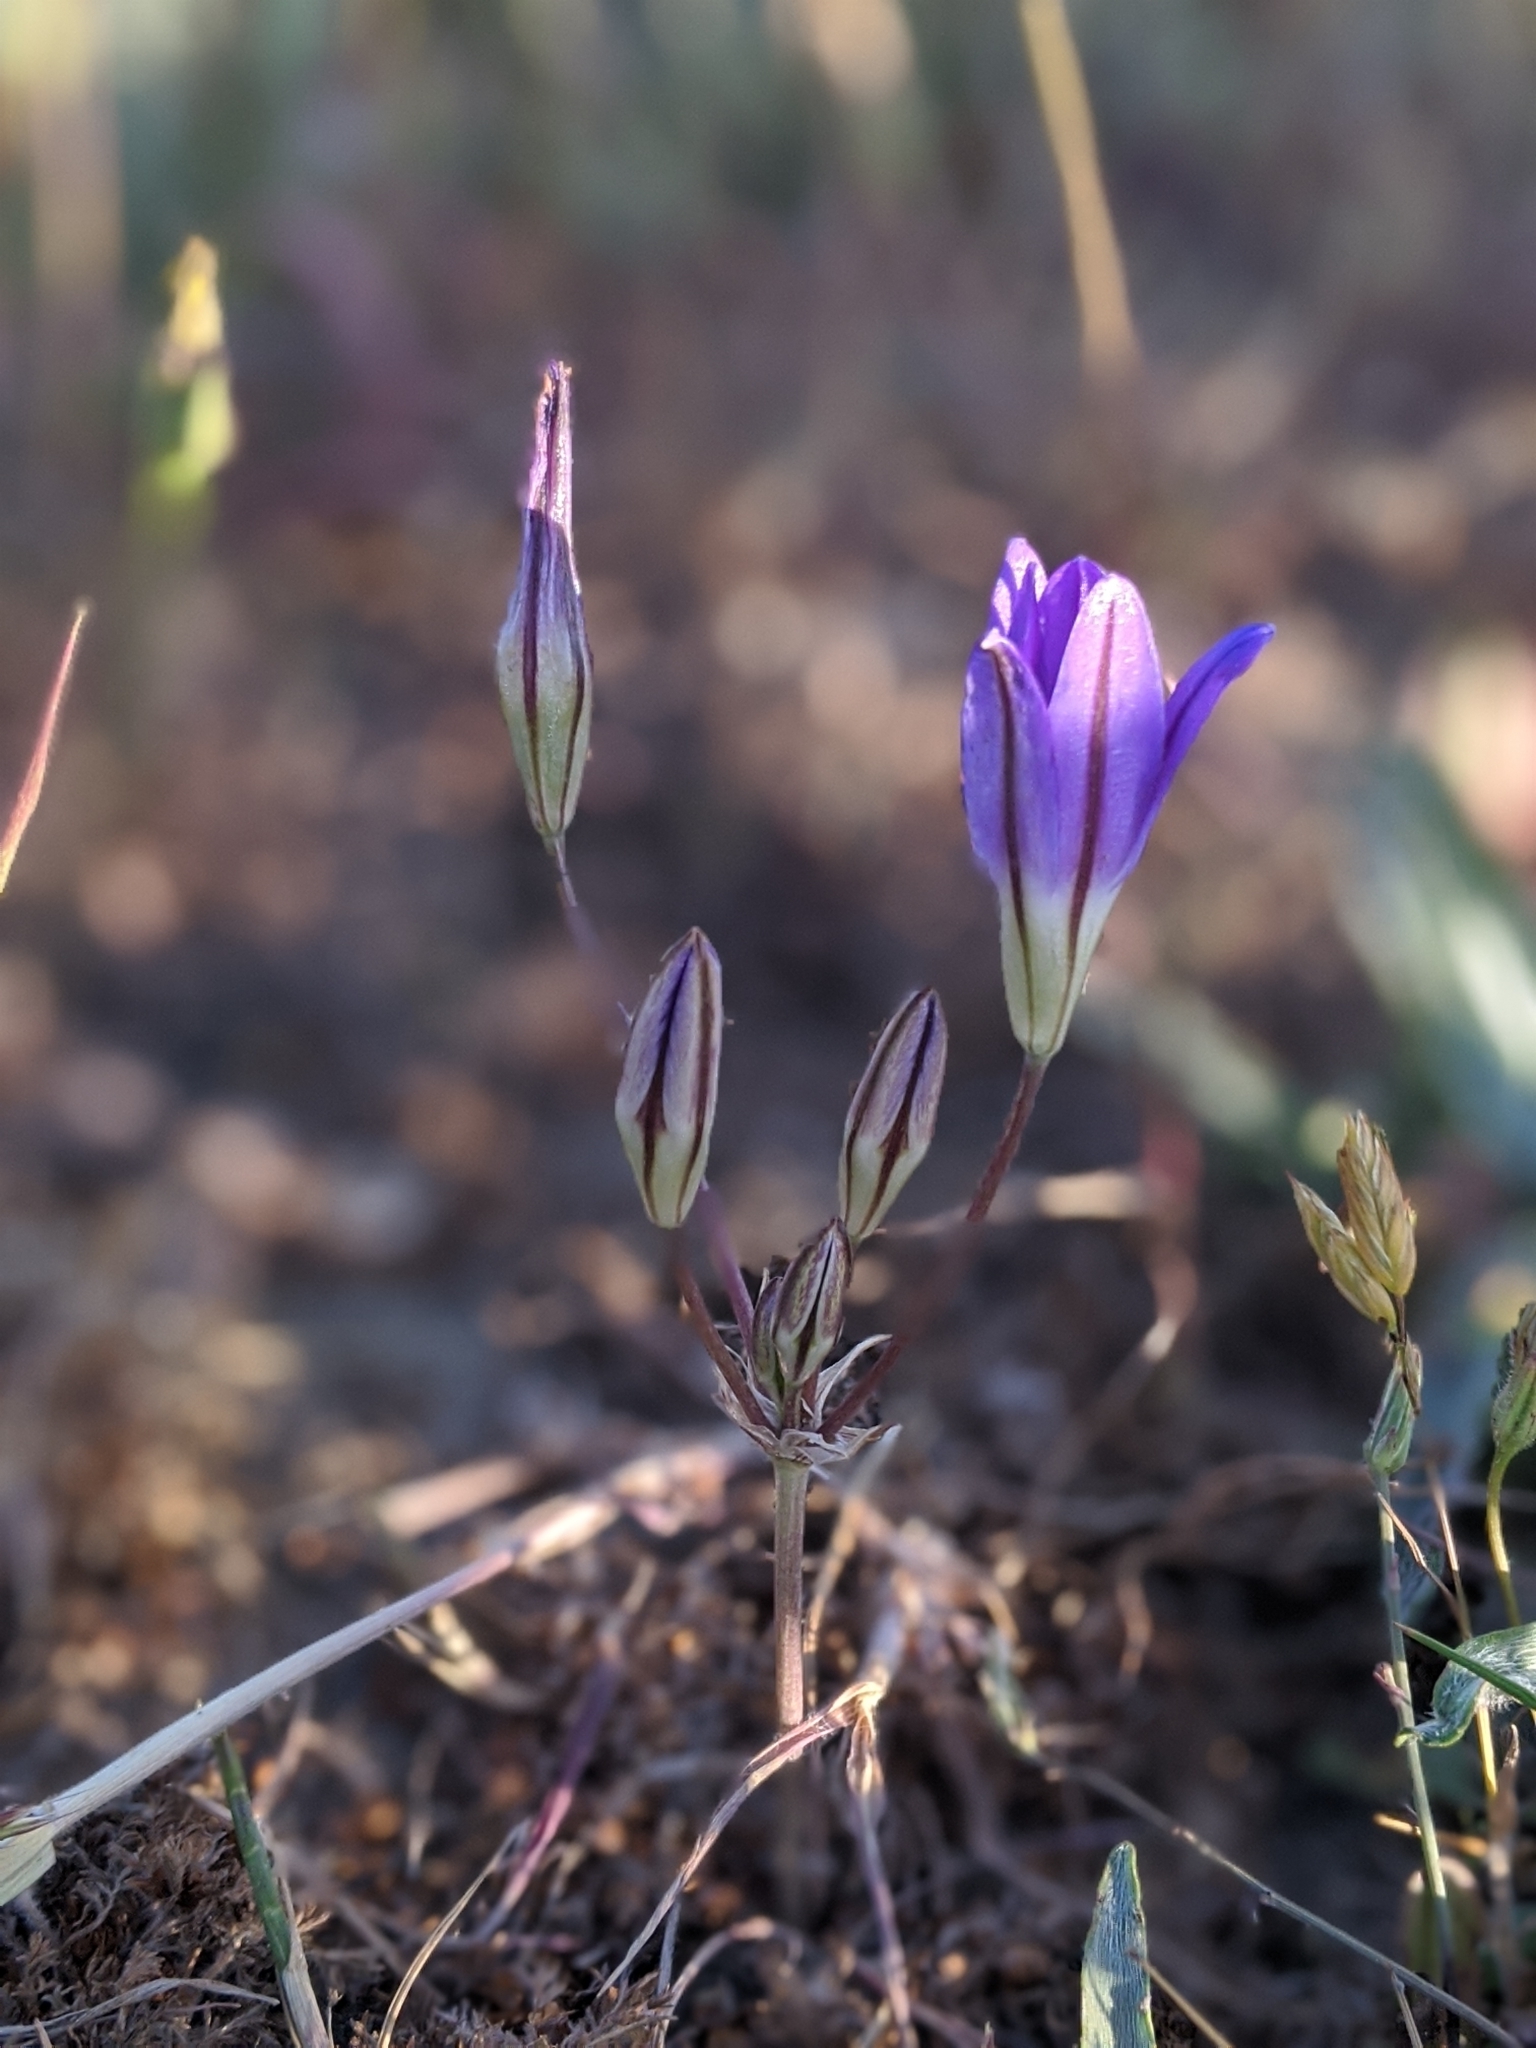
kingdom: Plantae
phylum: Tracheophyta
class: Liliopsida
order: Asparagales
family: Asparagaceae
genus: Brodiaea
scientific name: Brodiaea elegans
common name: Elegant cluster-lily
